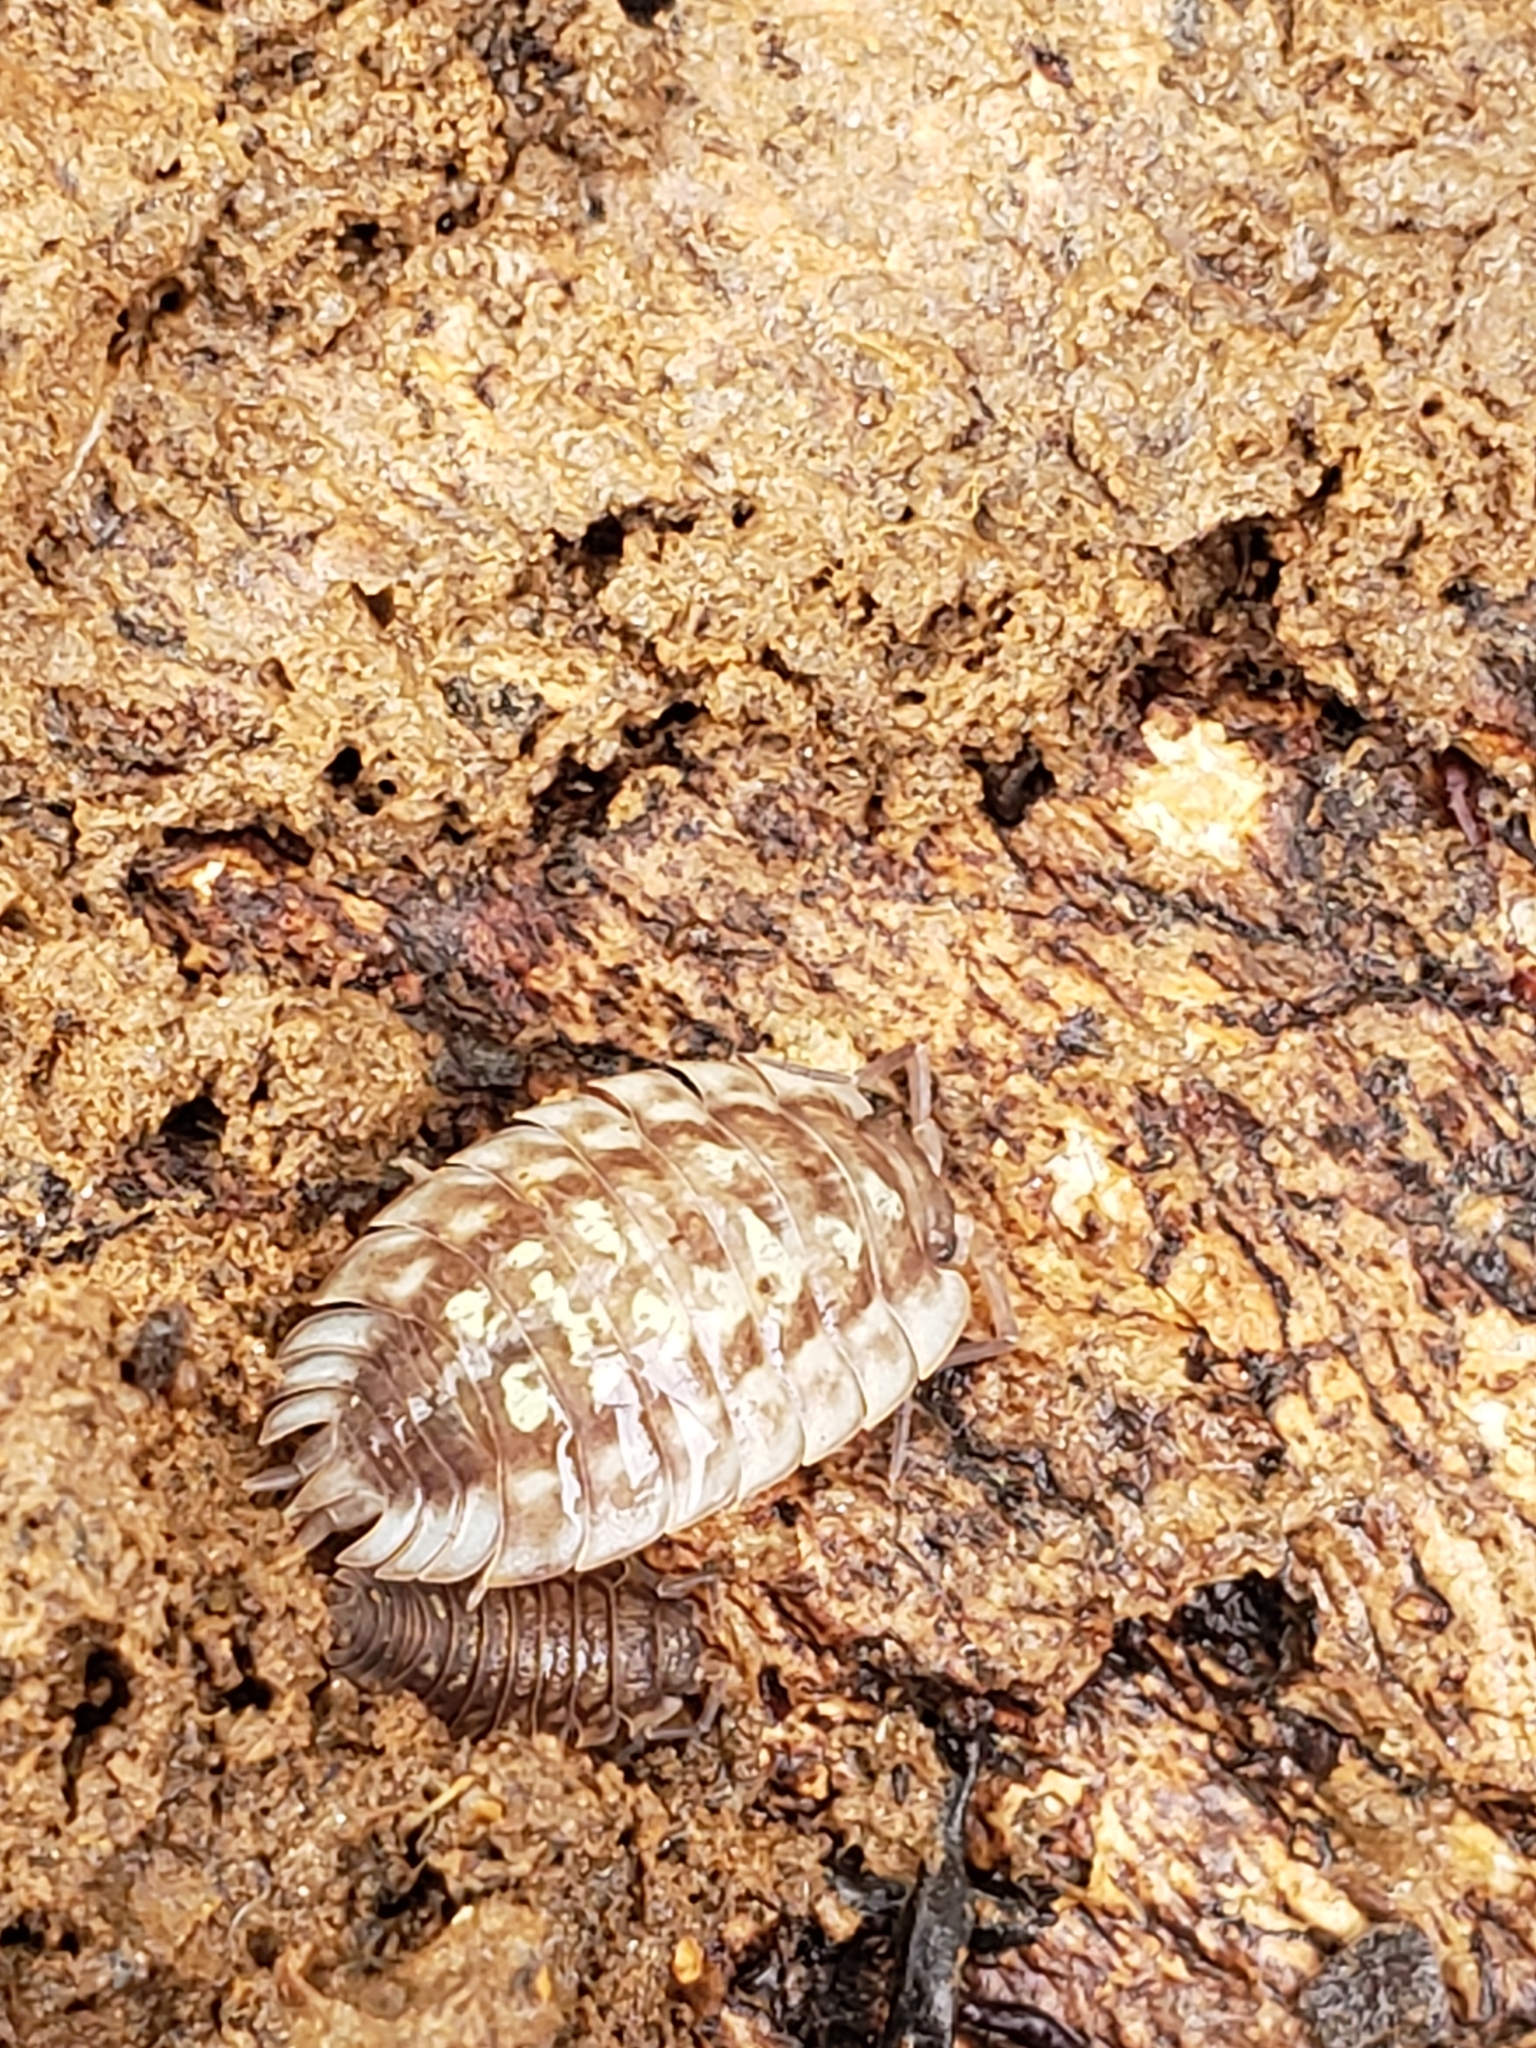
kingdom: Animalia
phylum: Arthropoda
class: Malacostraca
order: Isopoda
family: Oniscidae
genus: Oniscus
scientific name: Oniscus asellus
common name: Common shiny woodlouse
